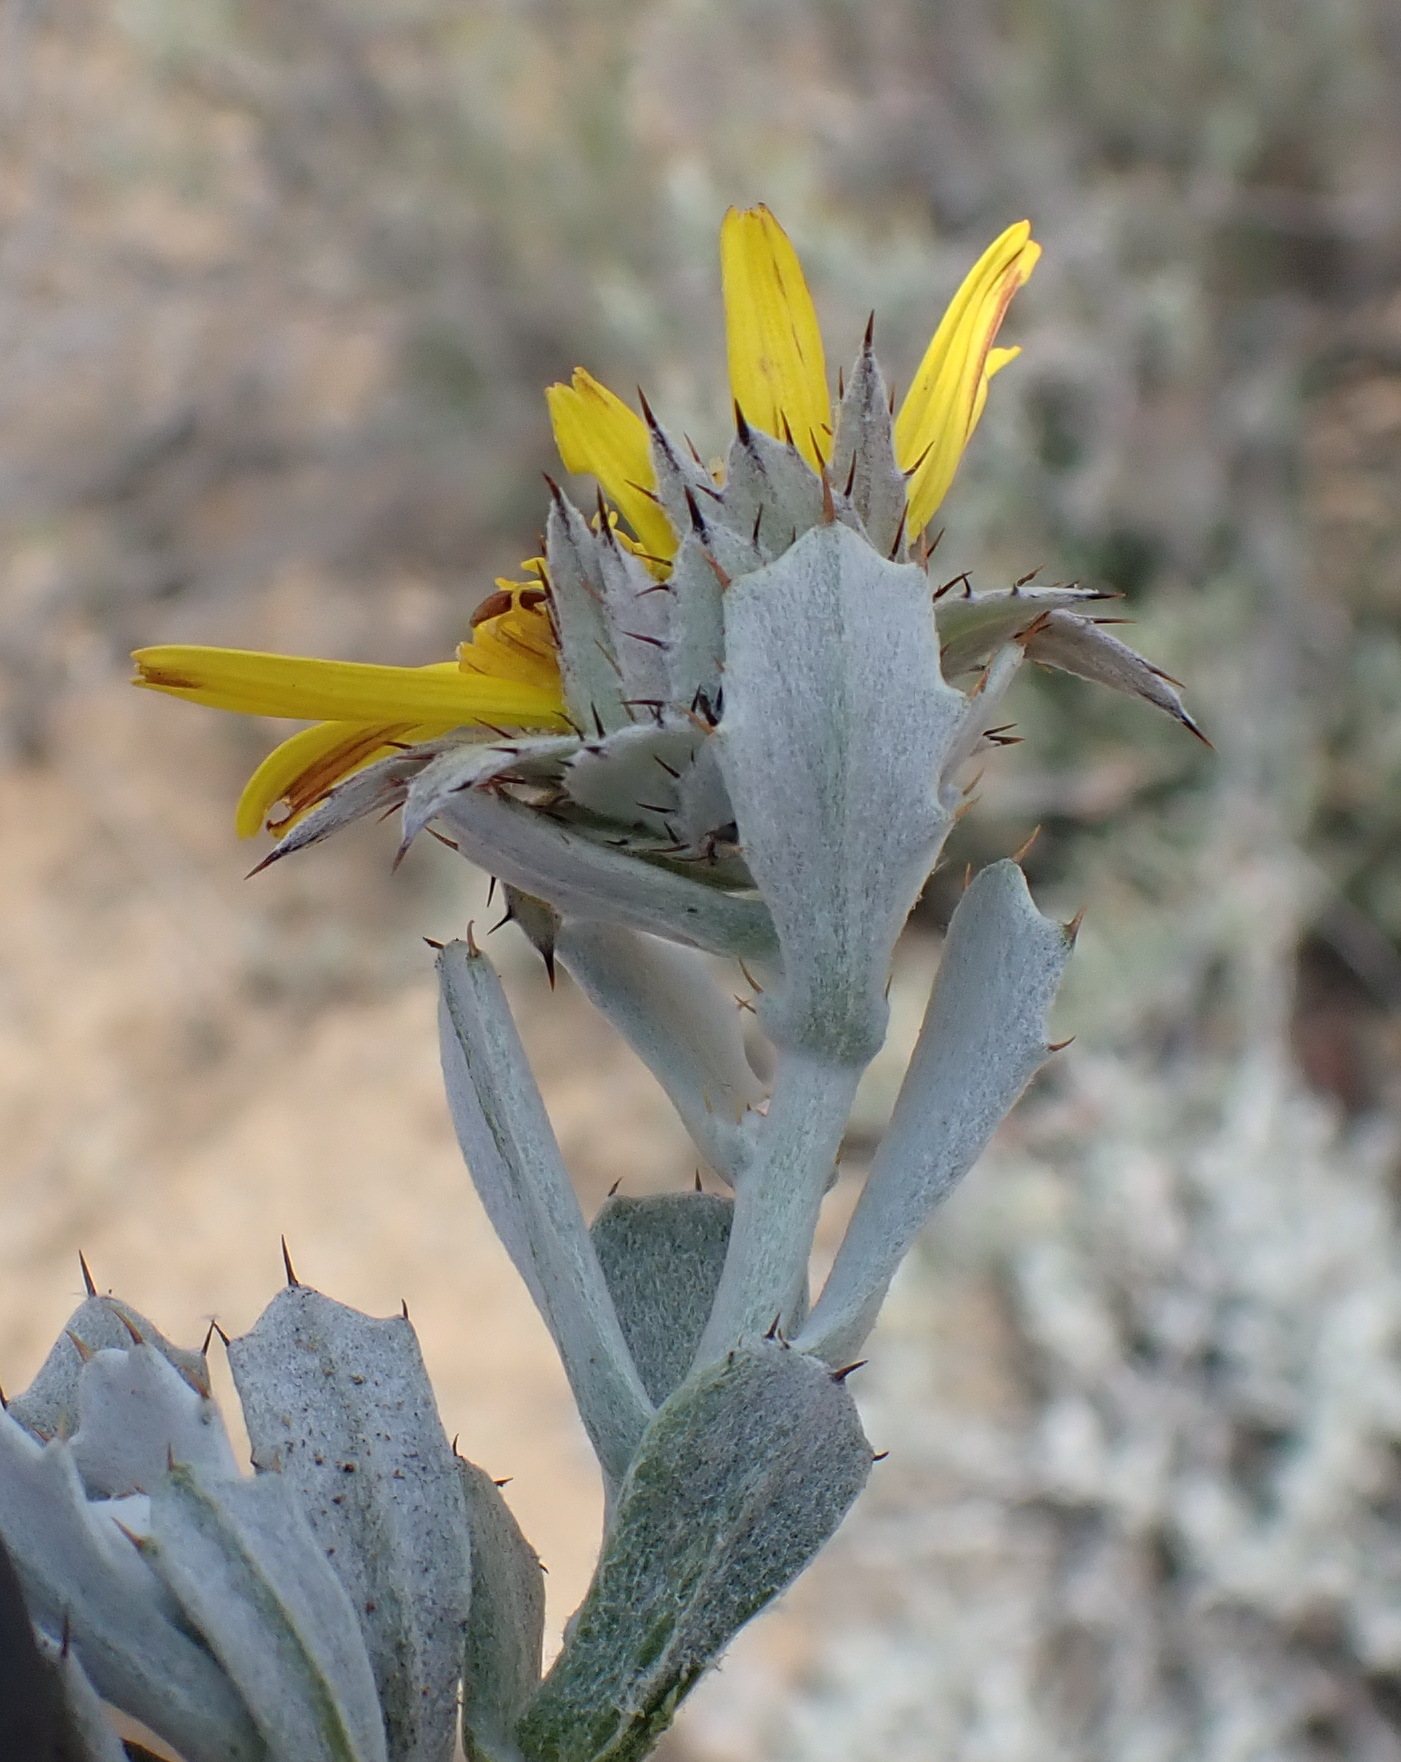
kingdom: Plantae
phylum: Tracheophyta
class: Magnoliopsida
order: Asterales
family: Asteraceae
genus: Berkheya
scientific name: Berkheya cuneata
